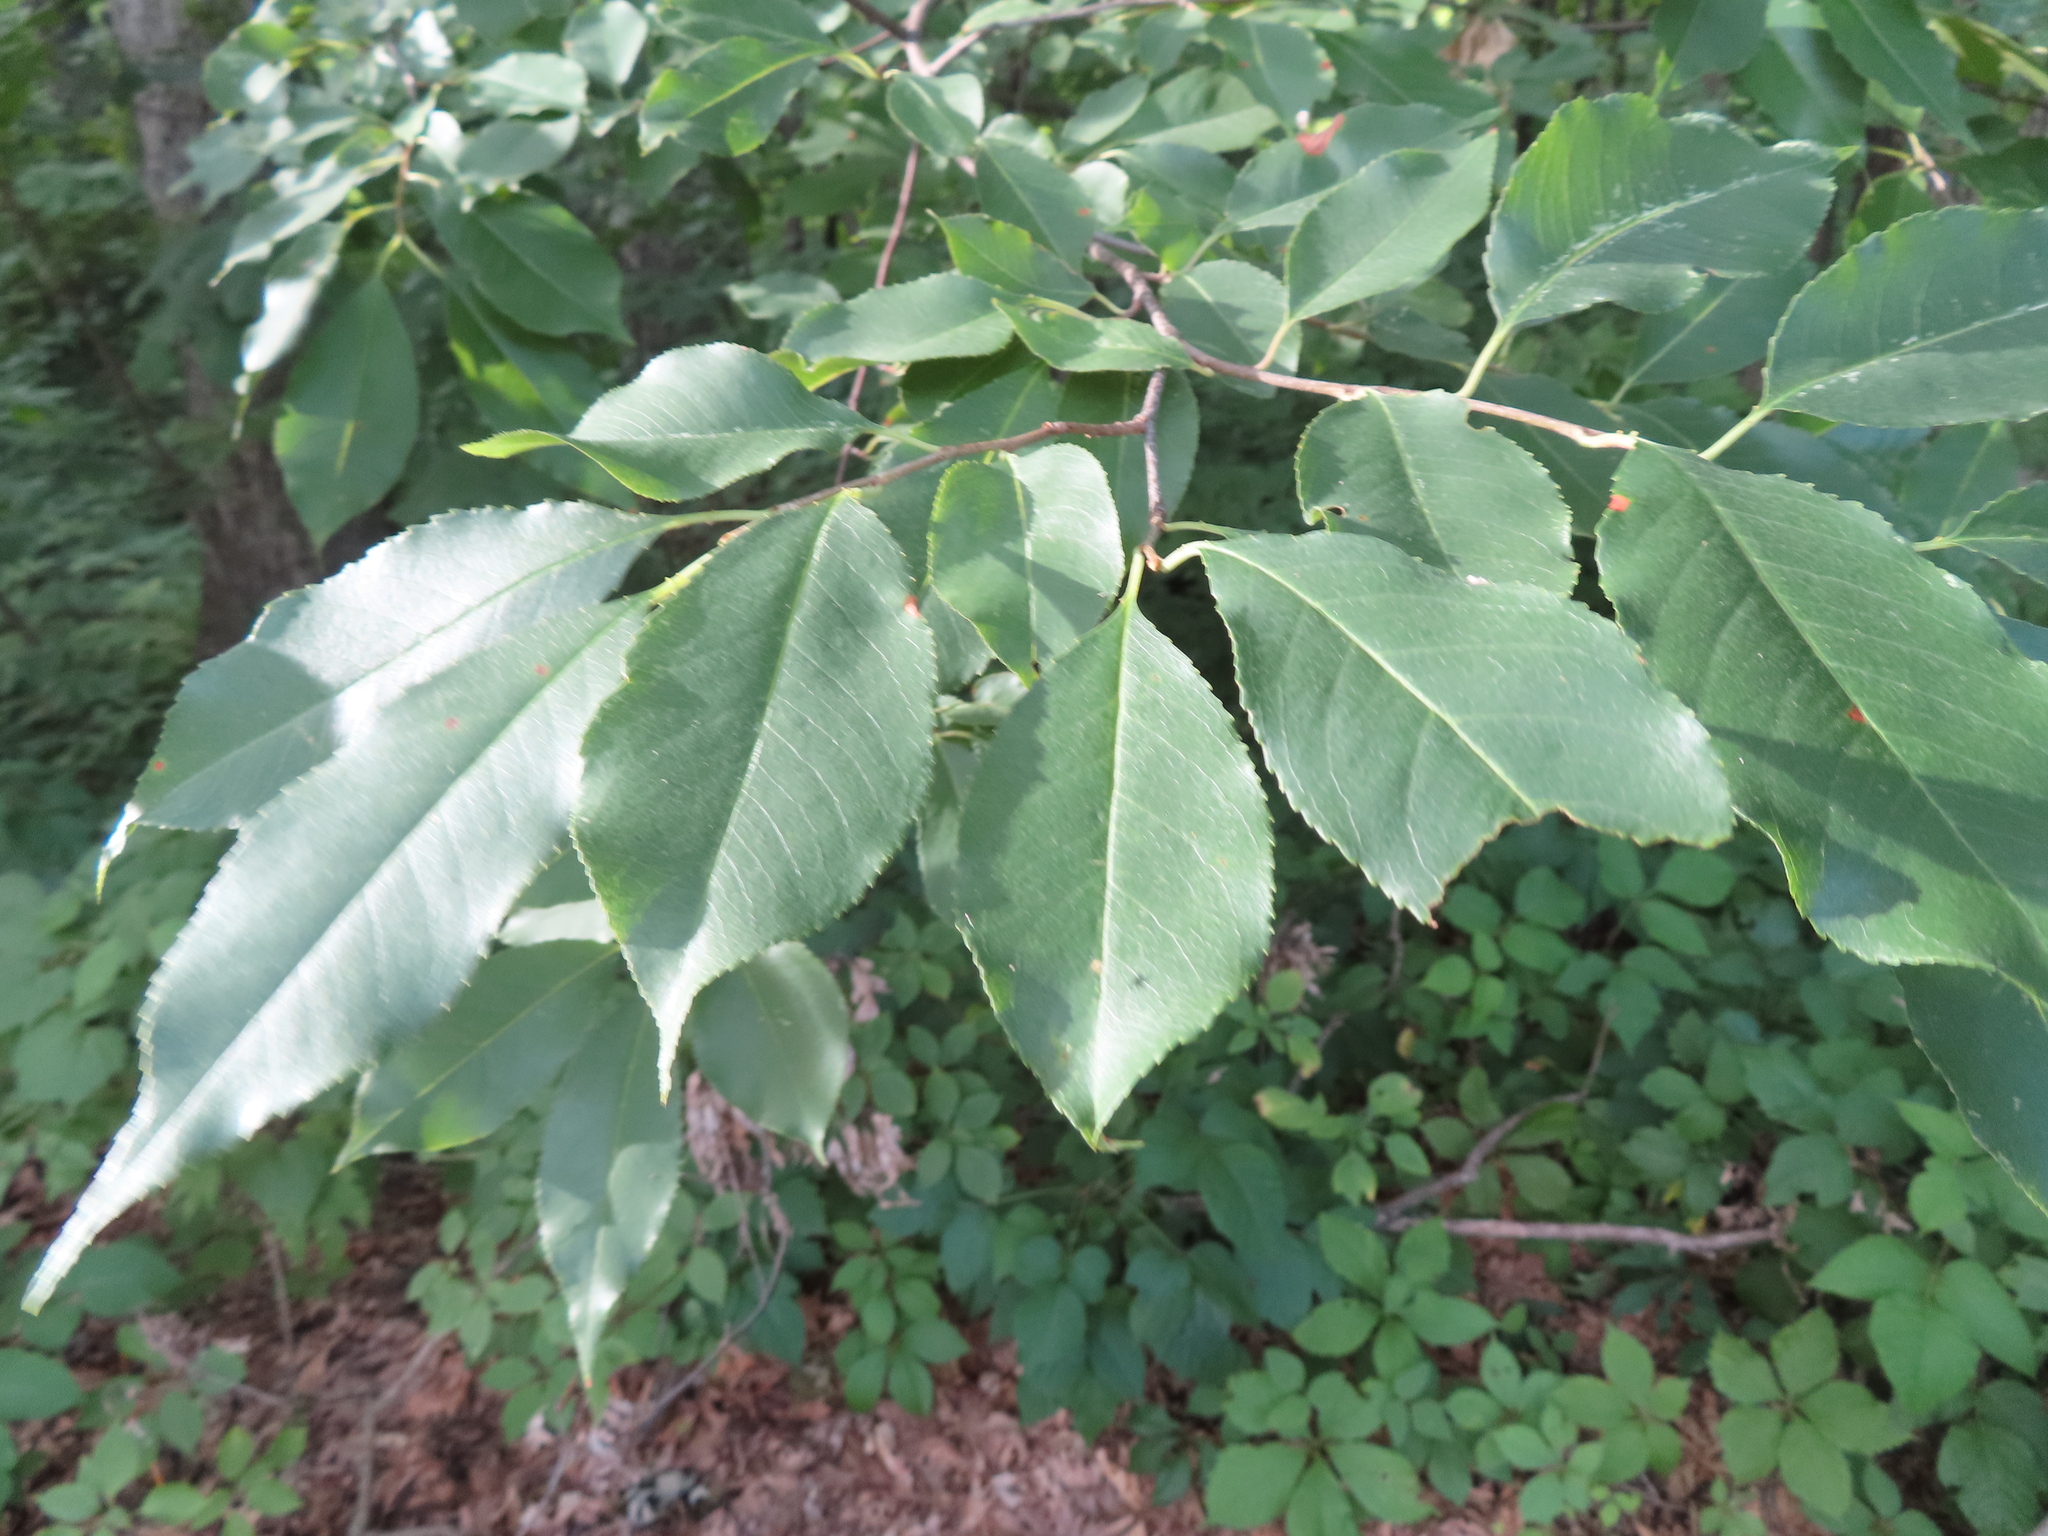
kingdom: Plantae
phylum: Tracheophyta
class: Magnoliopsida
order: Rosales
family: Rosaceae
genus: Prunus
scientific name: Prunus serotina
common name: Black cherry
